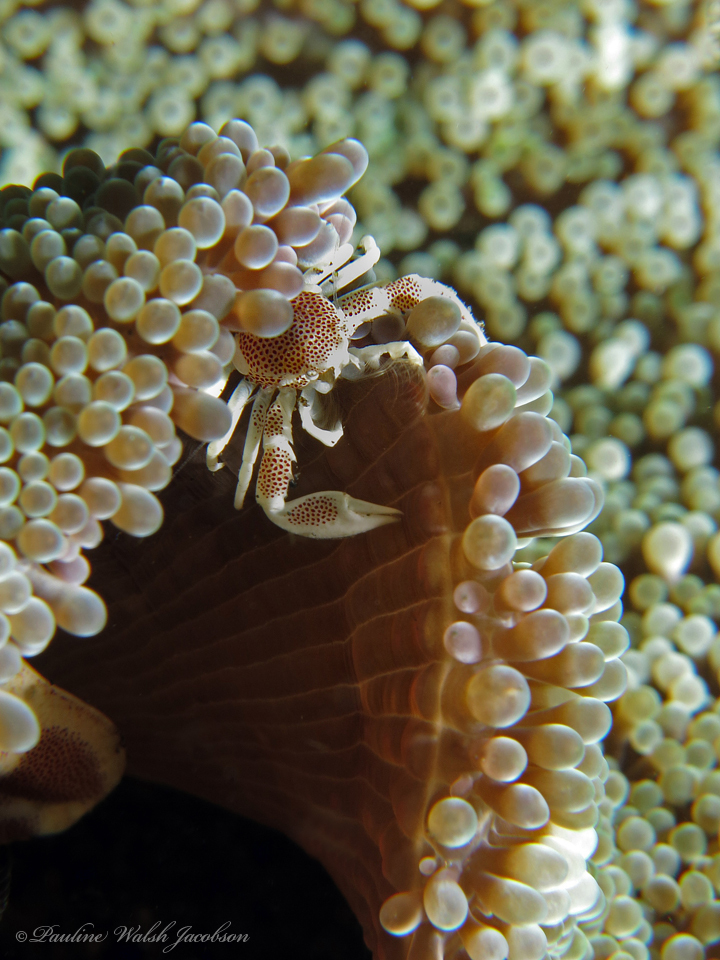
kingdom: Animalia
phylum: Arthropoda
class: Malacostraca
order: Decapoda
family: Porcellanidae
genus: Neopetrolisthes
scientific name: Neopetrolisthes maculatus
